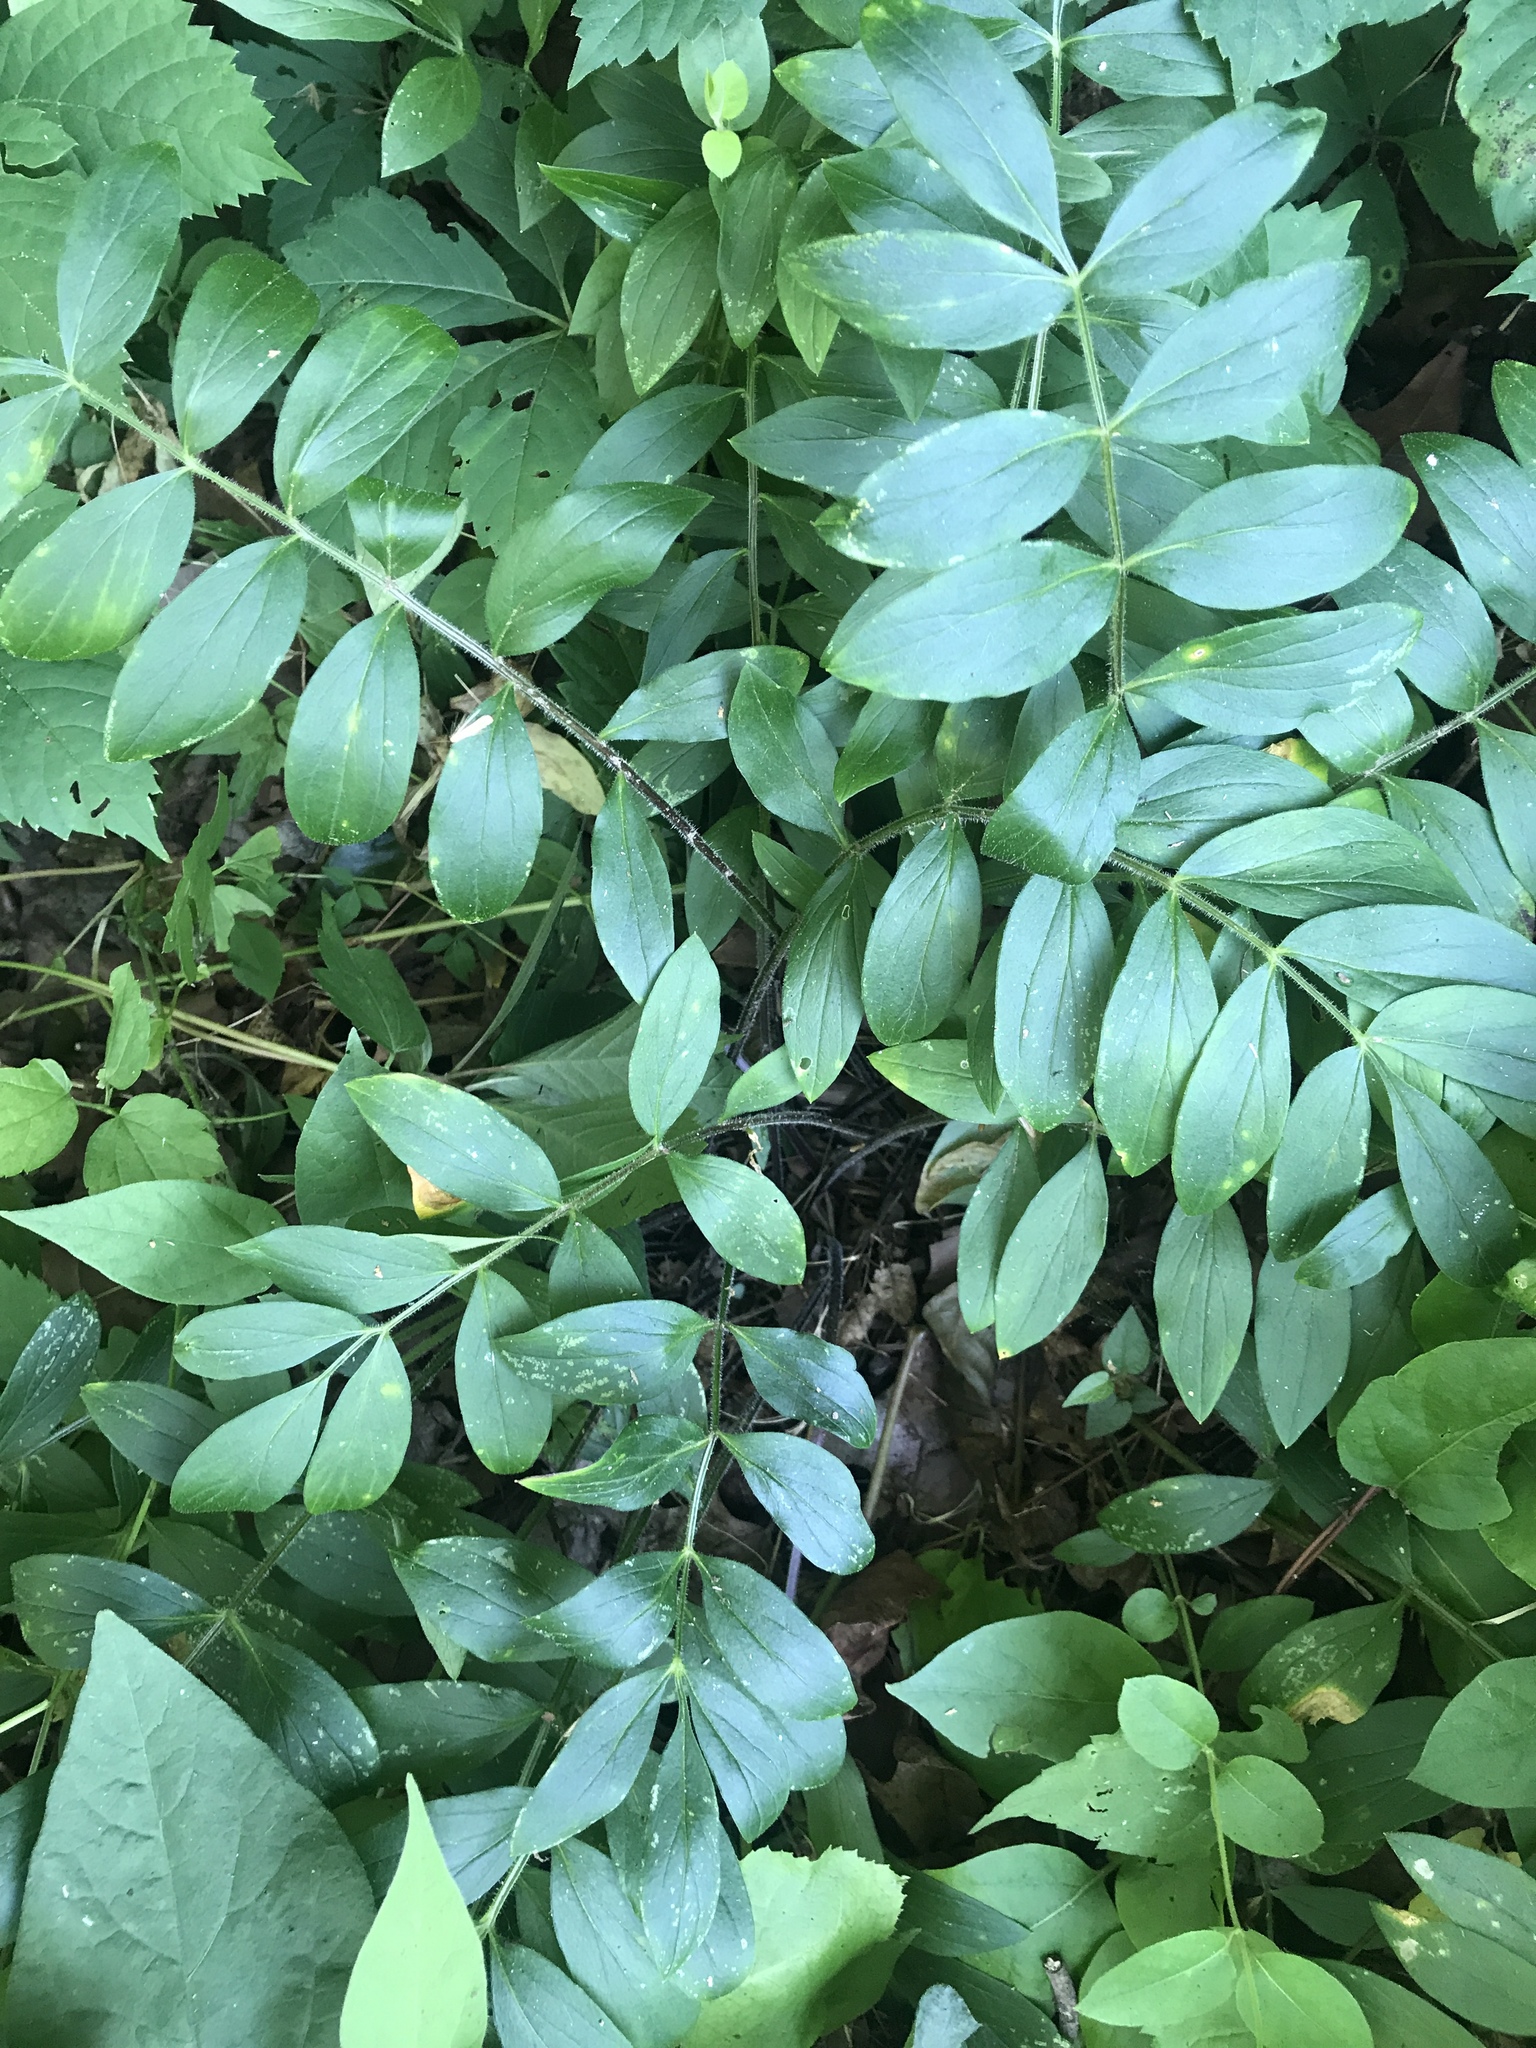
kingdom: Plantae
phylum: Tracheophyta
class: Magnoliopsida
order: Ericales
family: Polemoniaceae
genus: Polemonium
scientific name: Polemonium reptans
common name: Creeping jacob's-ladder
